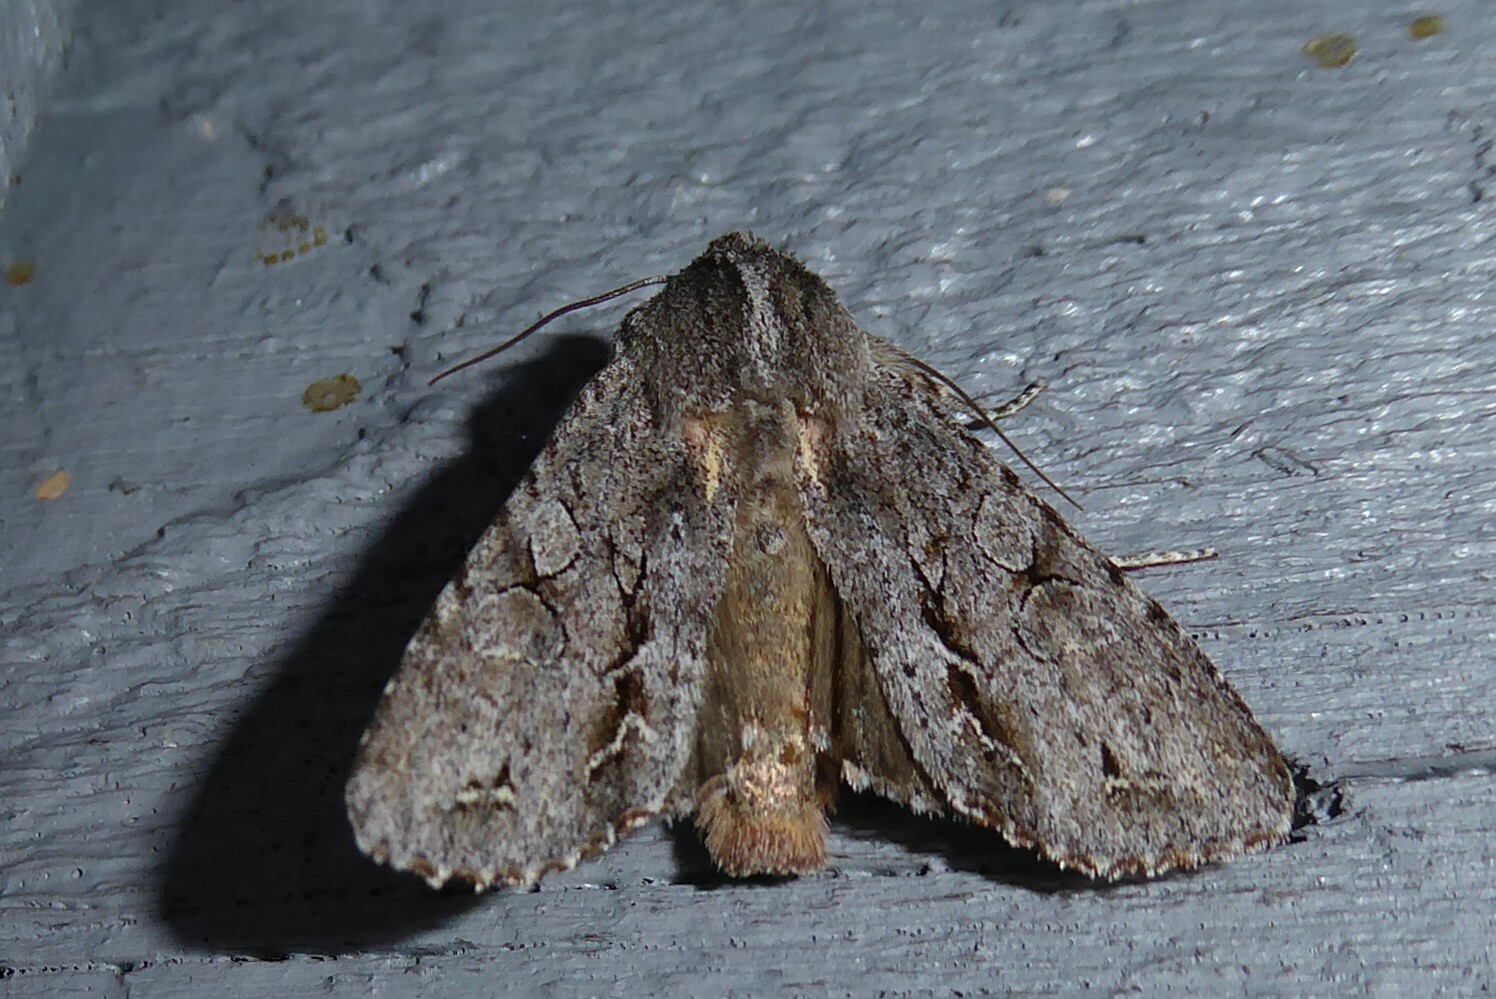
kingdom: Animalia
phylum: Arthropoda
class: Insecta
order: Lepidoptera
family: Noctuidae
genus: Ichneutica
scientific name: Ichneutica
